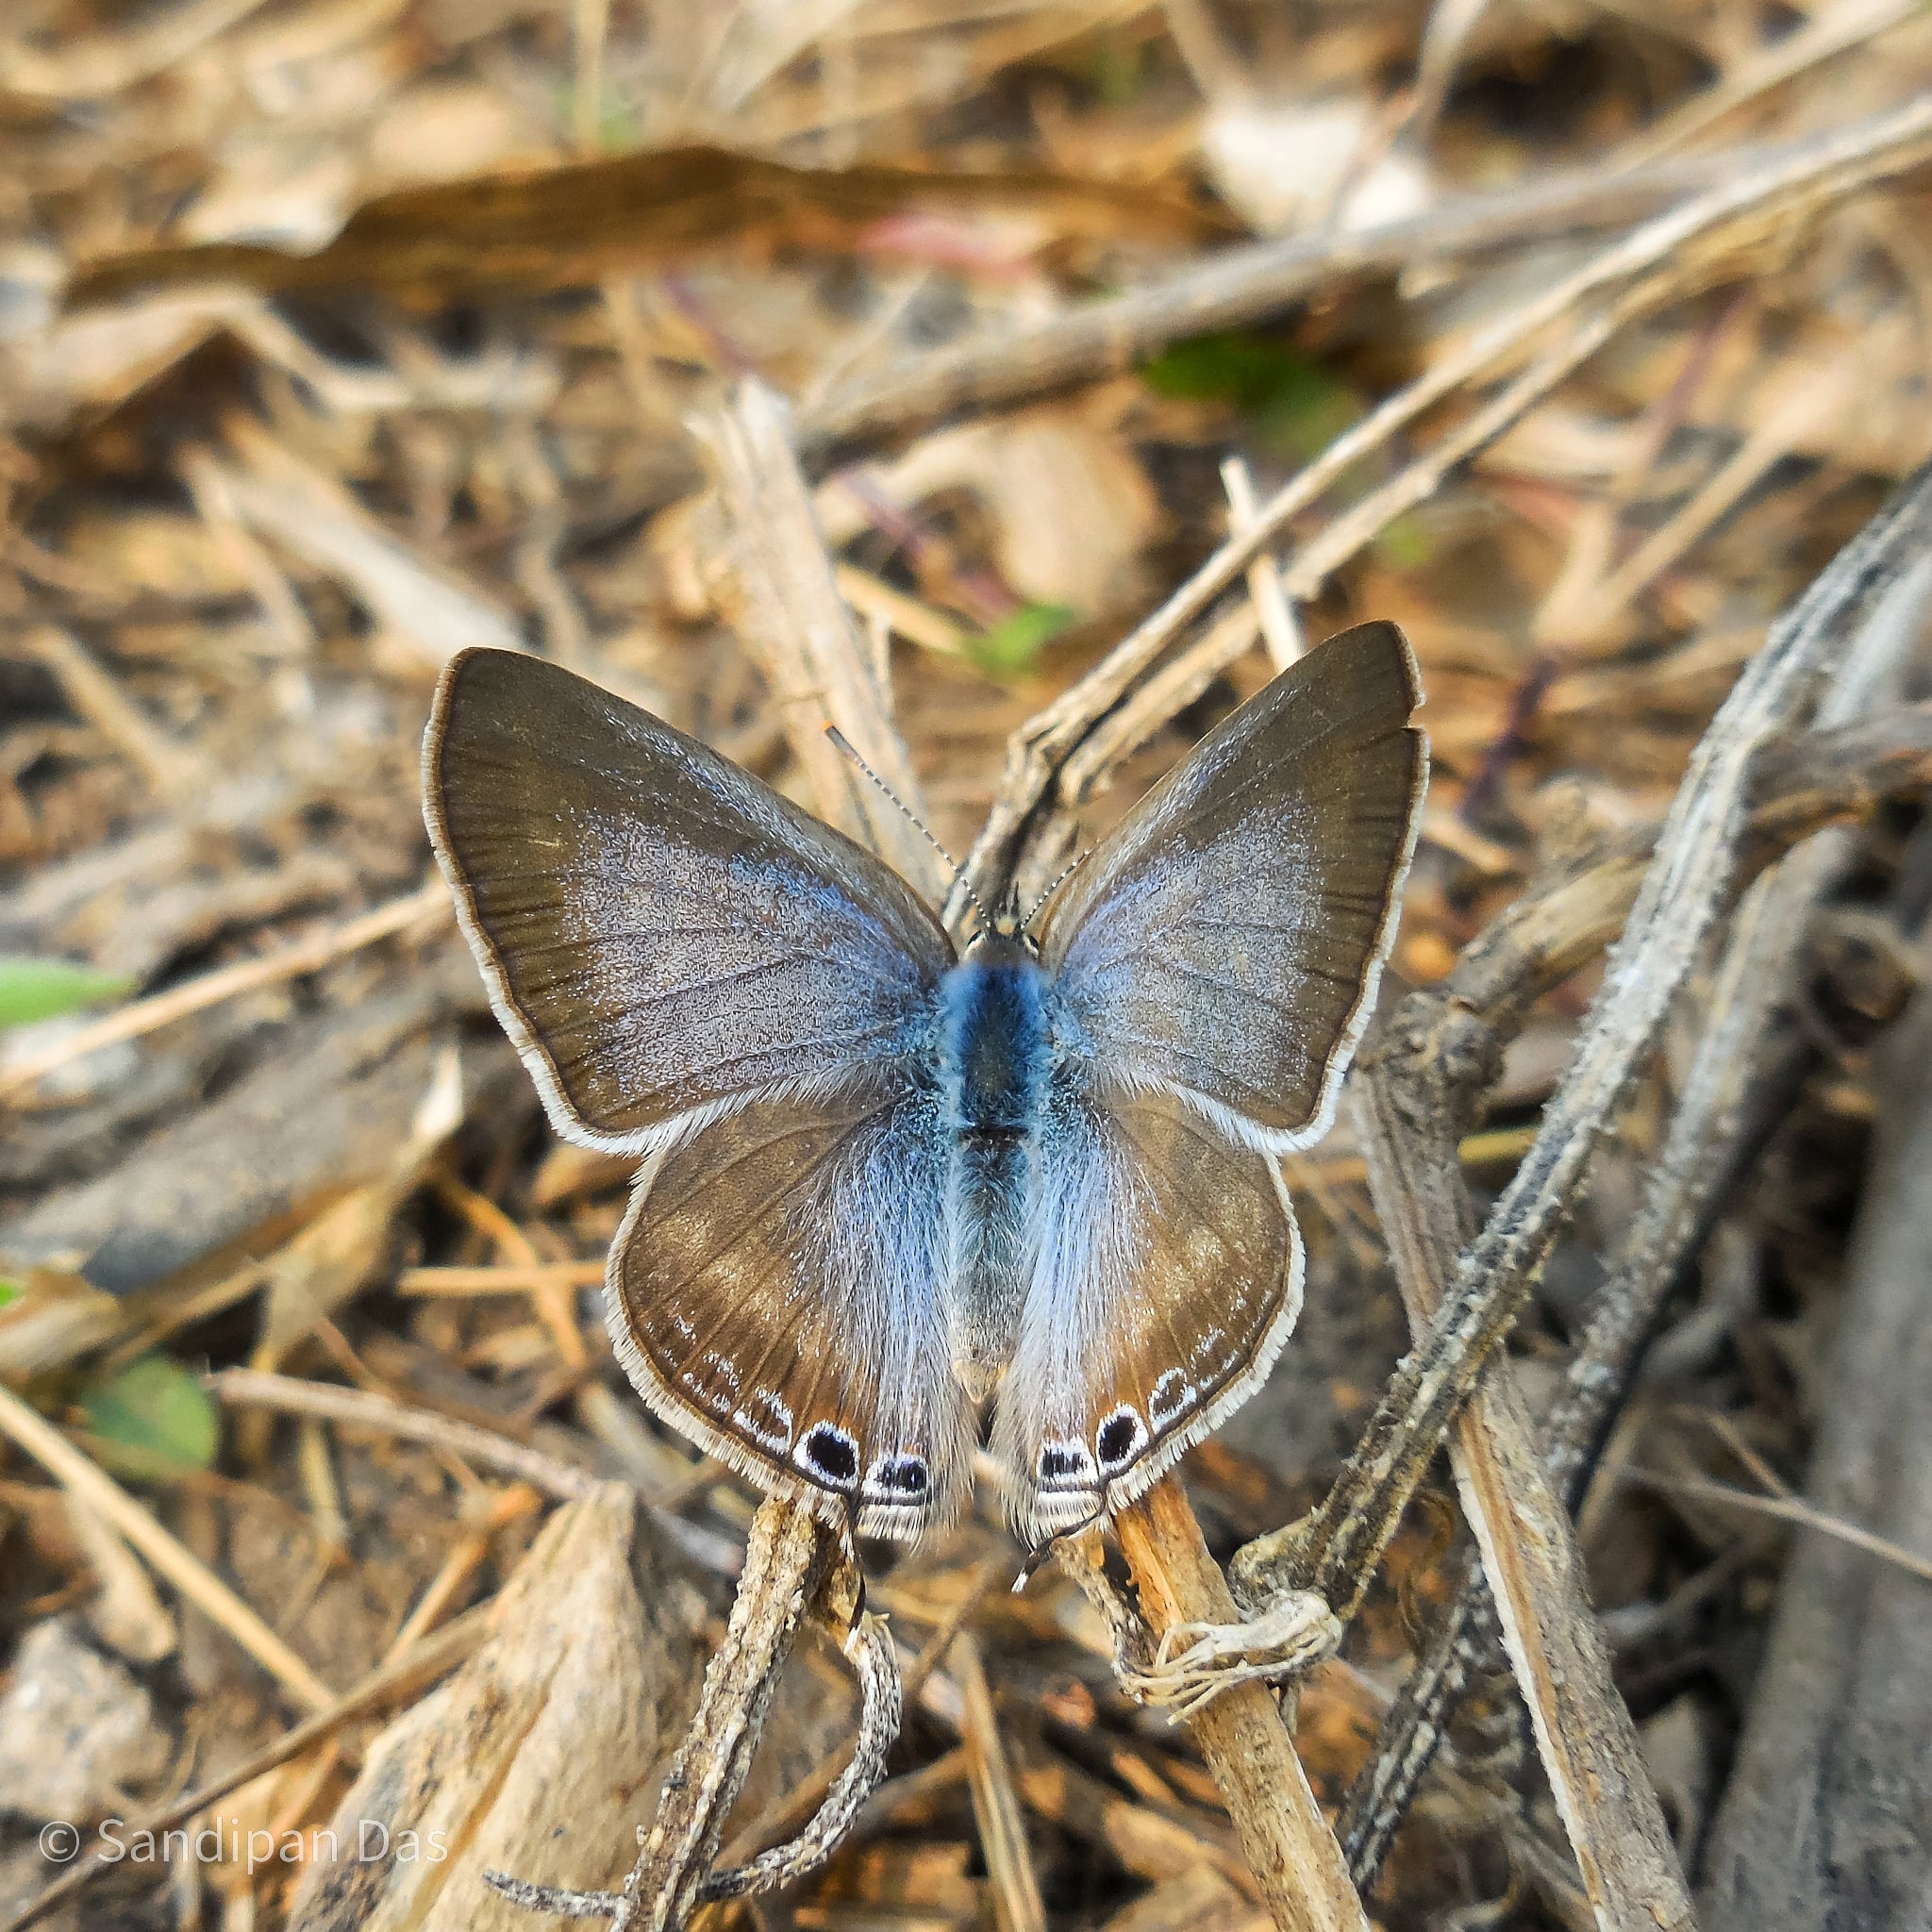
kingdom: Animalia
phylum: Arthropoda
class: Insecta
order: Lepidoptera
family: Lycaenidae
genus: Lampides
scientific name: Lampides boeticus
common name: Long-tailed blue
